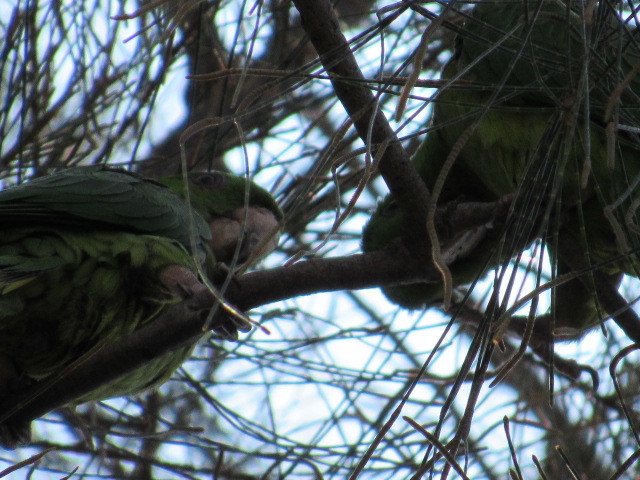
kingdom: Animalia
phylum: Chordata
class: Aves
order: Psittaciformes
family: Psittacidae
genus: Aratinga
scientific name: Aratinga holochlora
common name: Green parakeet
